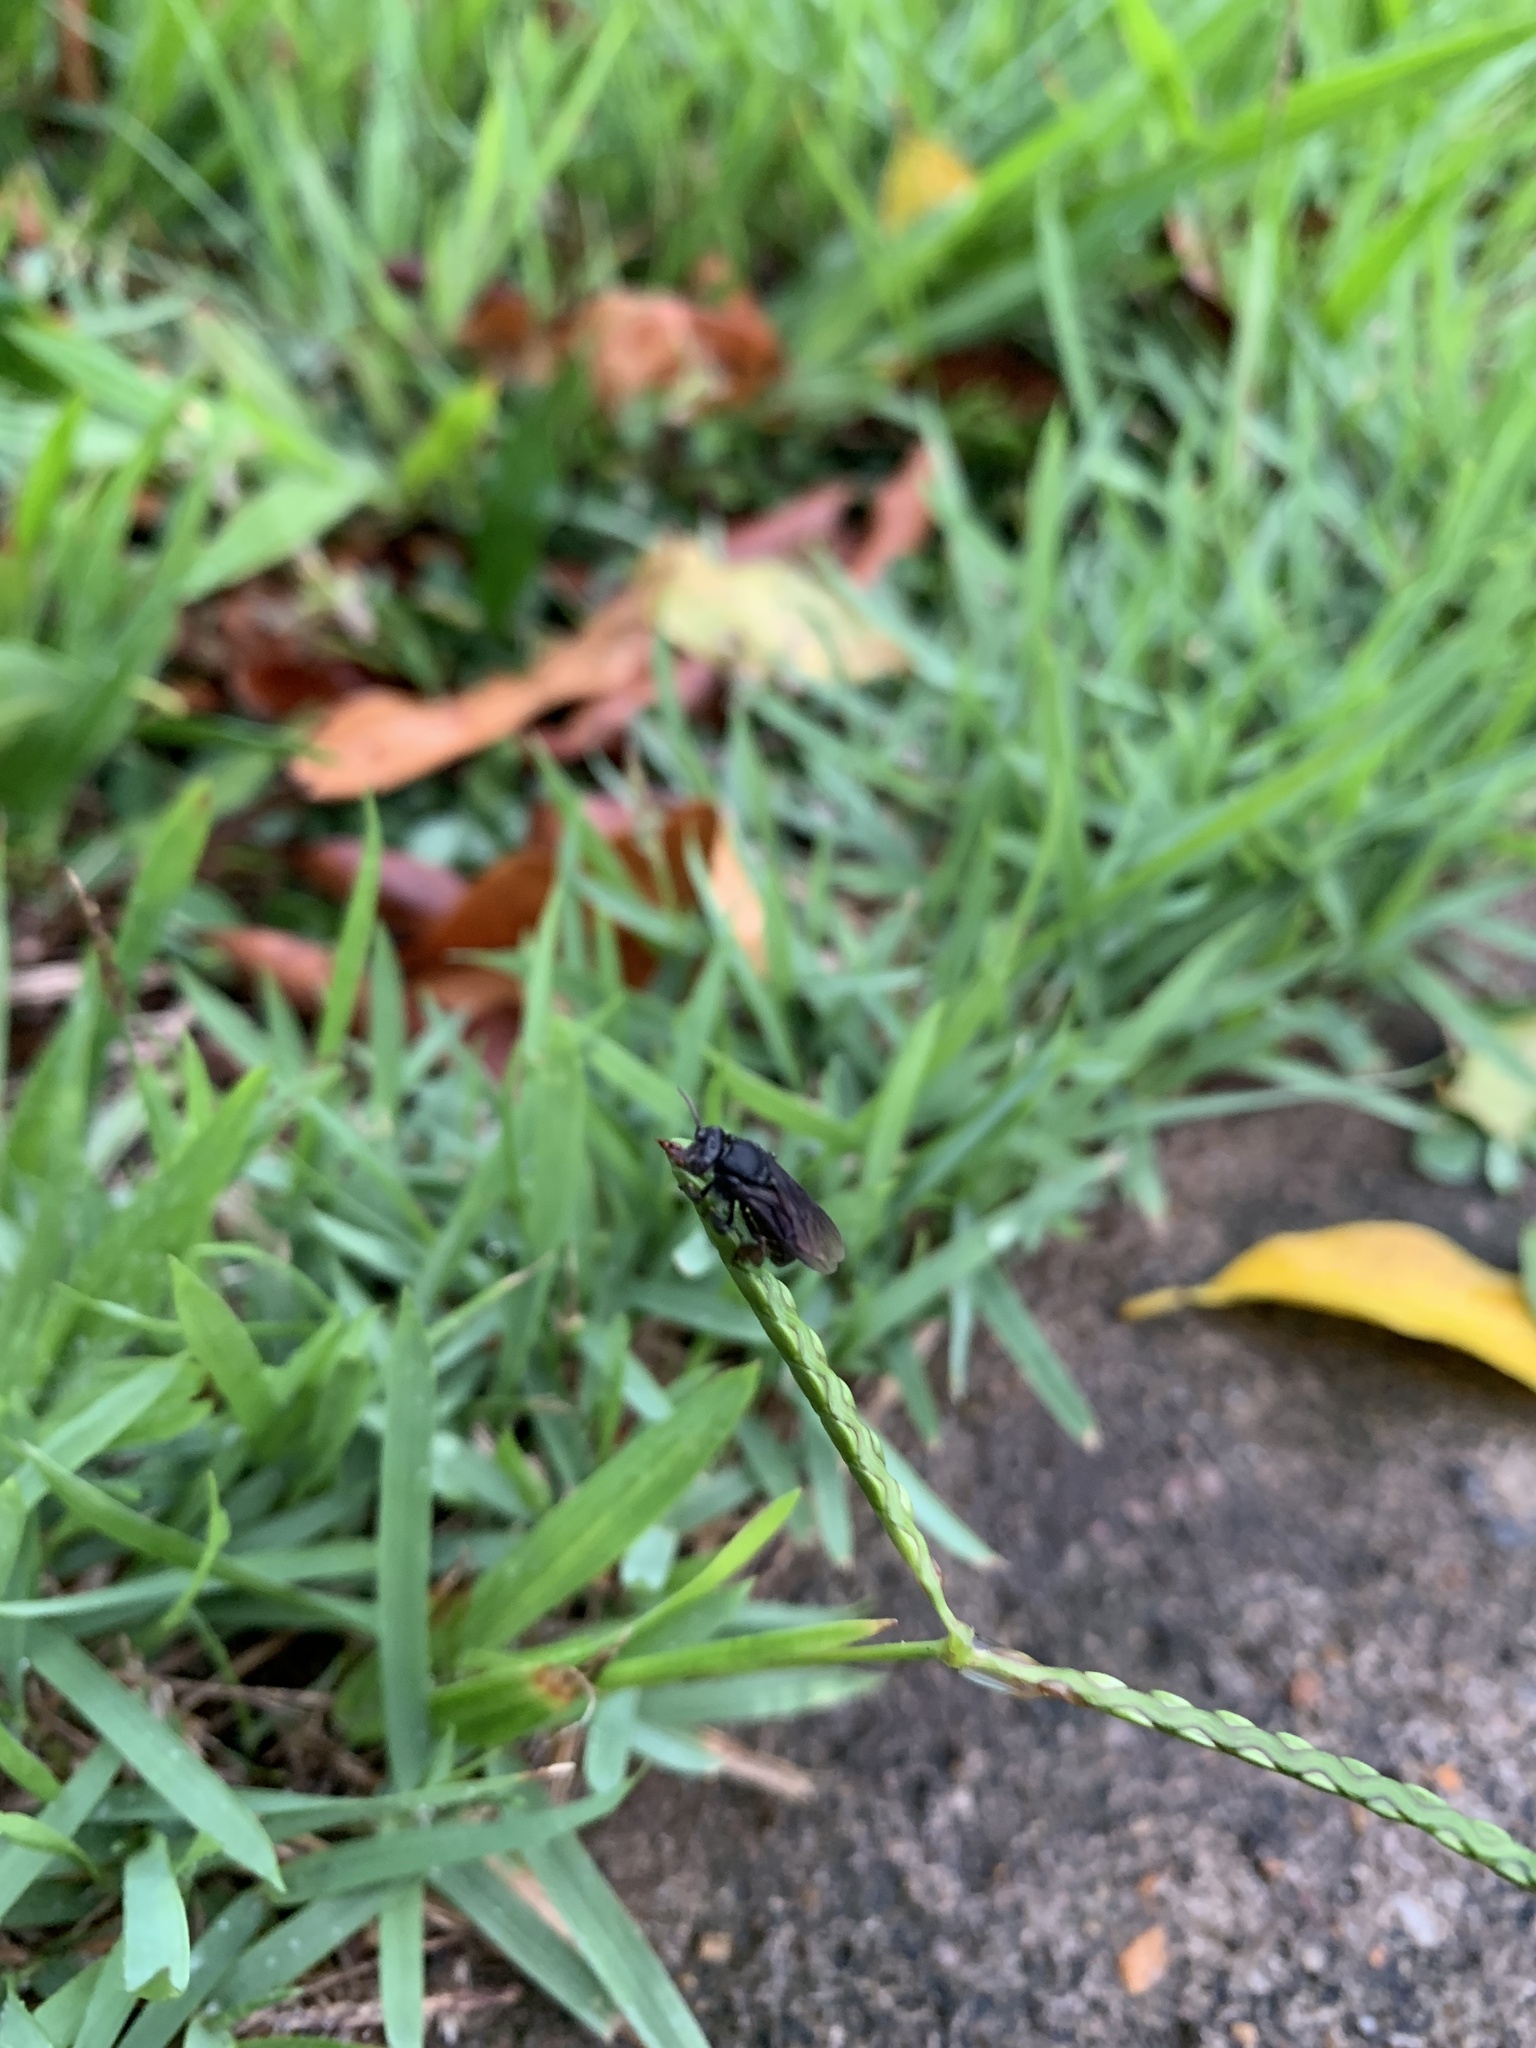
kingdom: Animalia
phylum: Arthropoda
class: Insecta
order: Hymenoptera
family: Apidae
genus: Trigona
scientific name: Trigona spinipes
